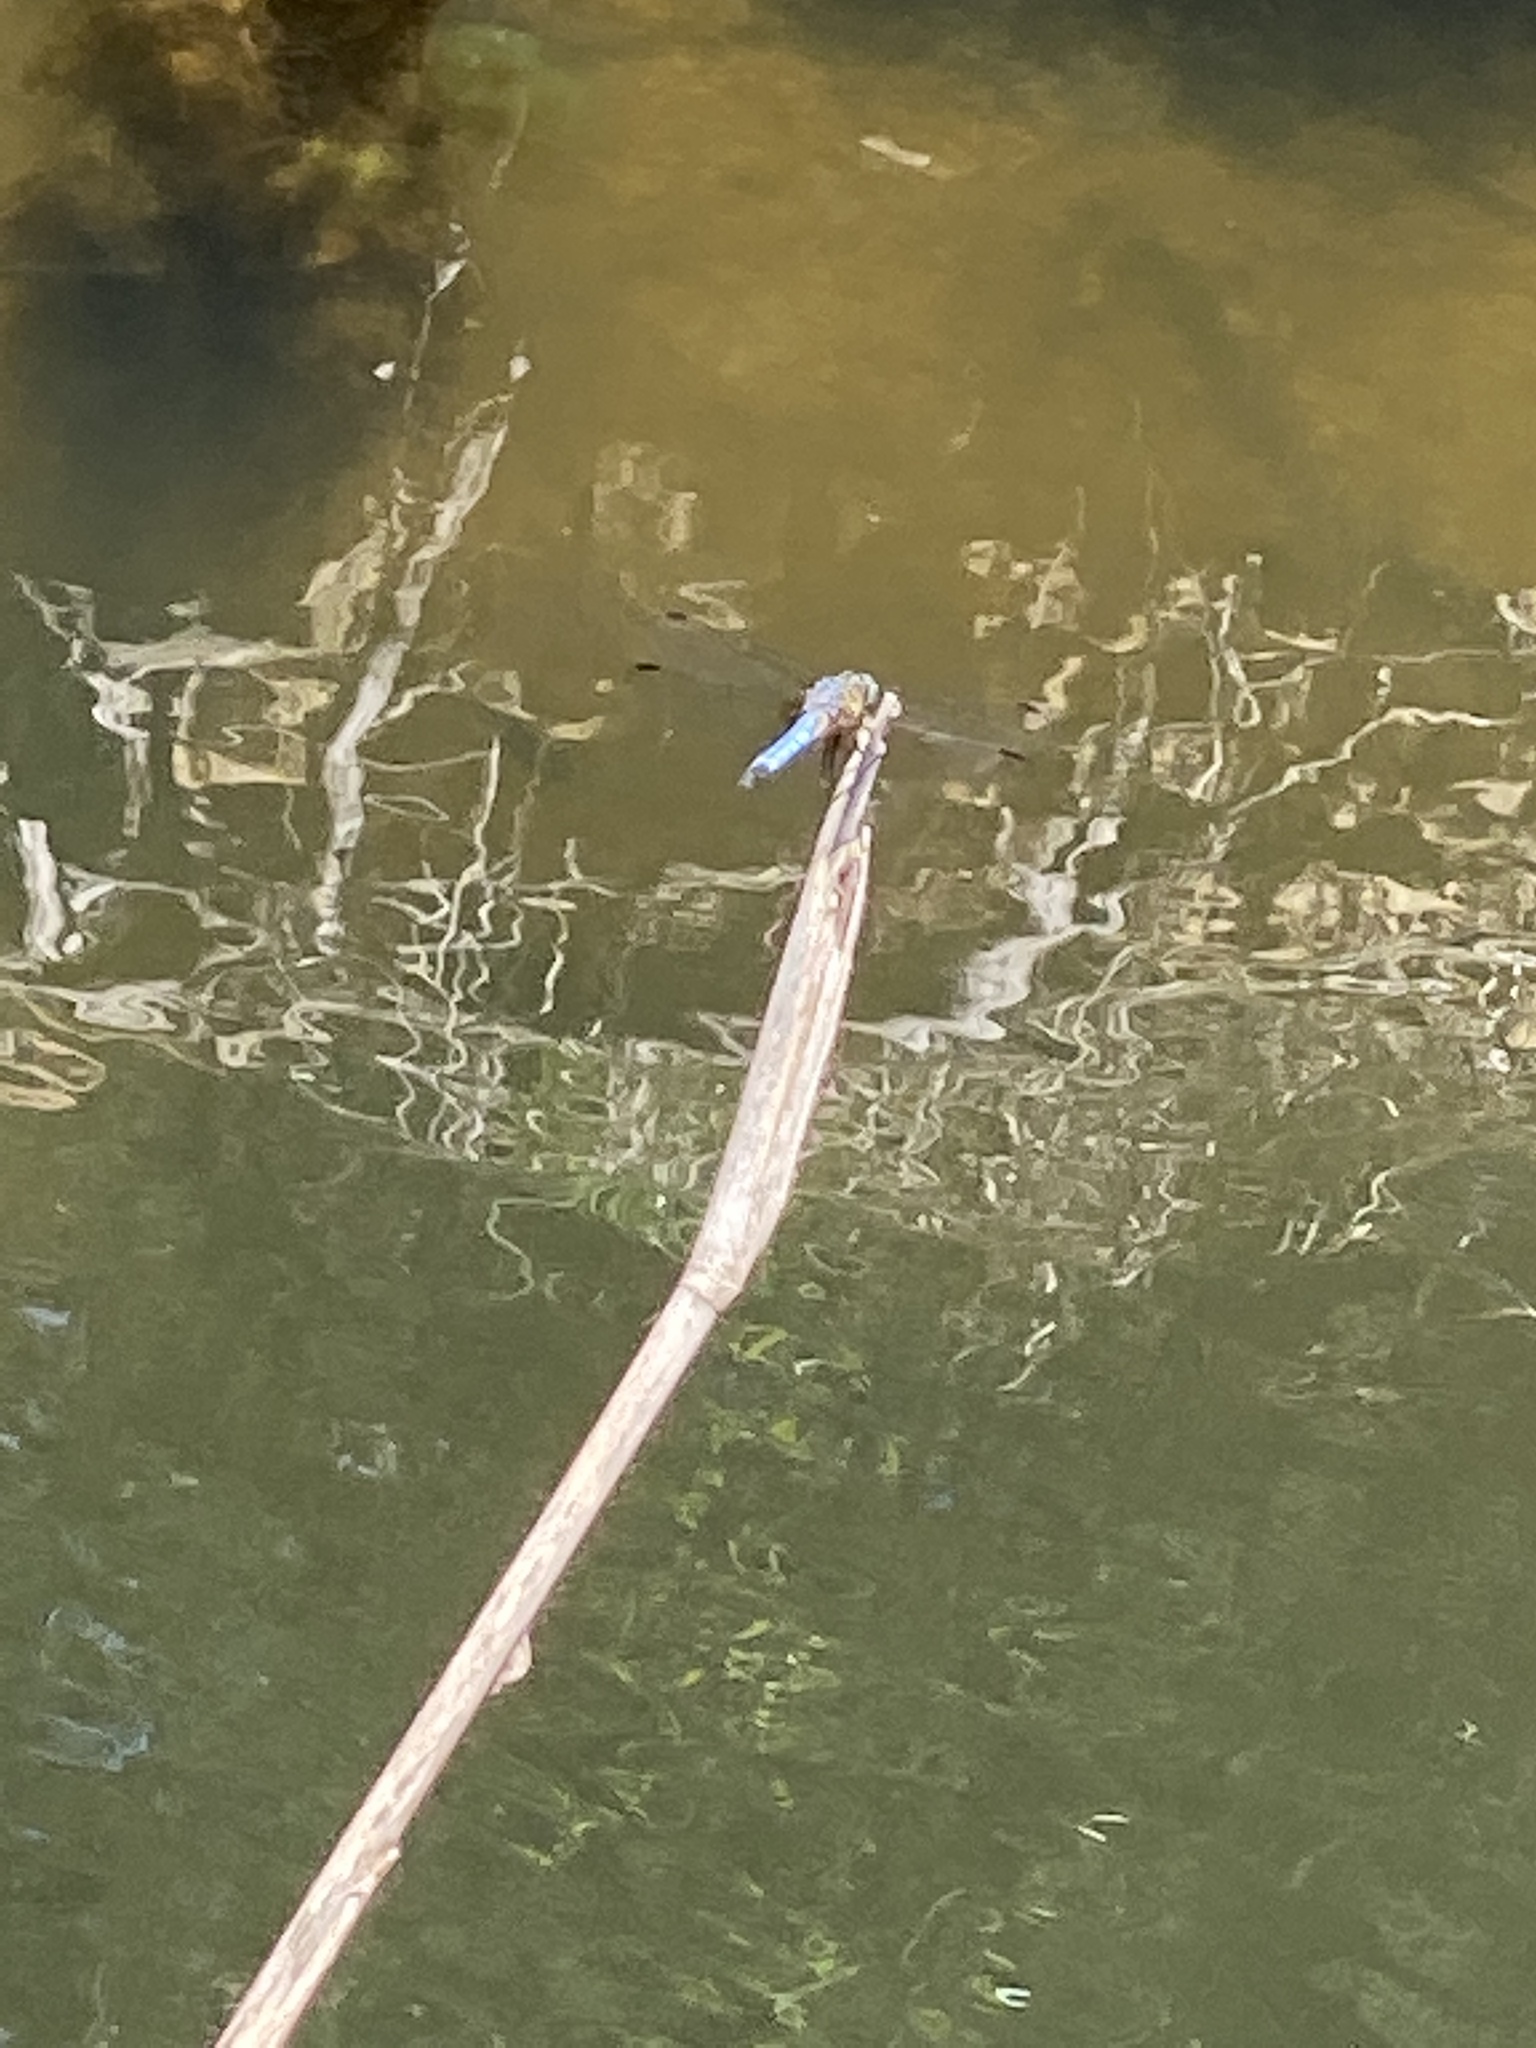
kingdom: Animalia
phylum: Arthropoda
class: Insecta
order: Odonata
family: Libellulidae
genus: Pachydiplax
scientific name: Pachydiplax longipennis
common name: Blue dasher
